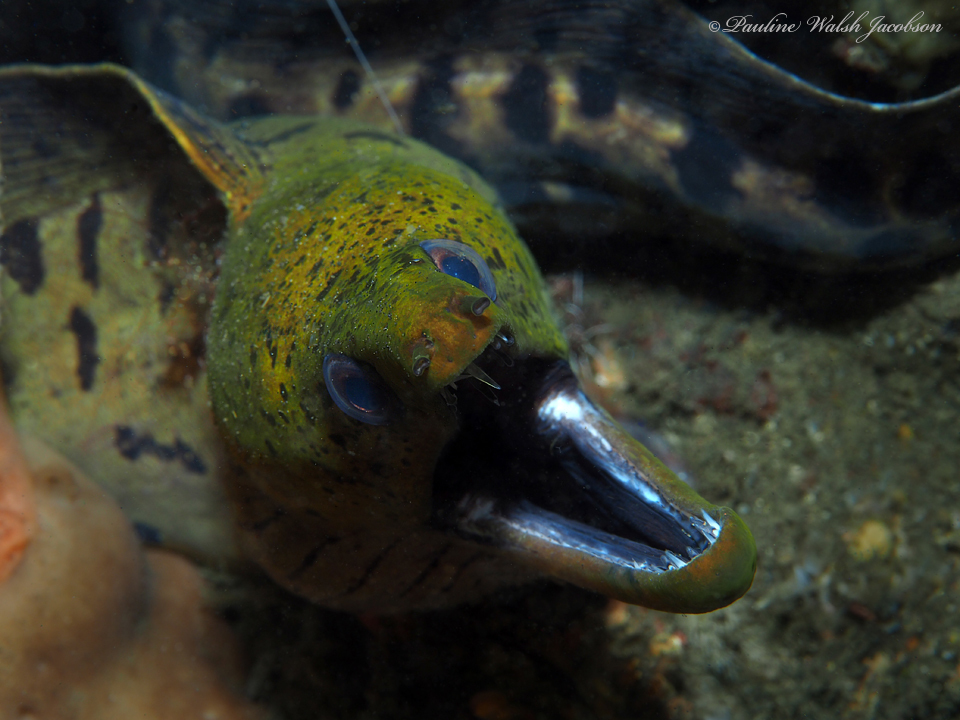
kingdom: Animalia
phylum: Chordata
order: Anguilliformes
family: Muraenidae
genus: Gymnothorax
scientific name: Gymnothorax fimbriatus
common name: Darkspotted moray
